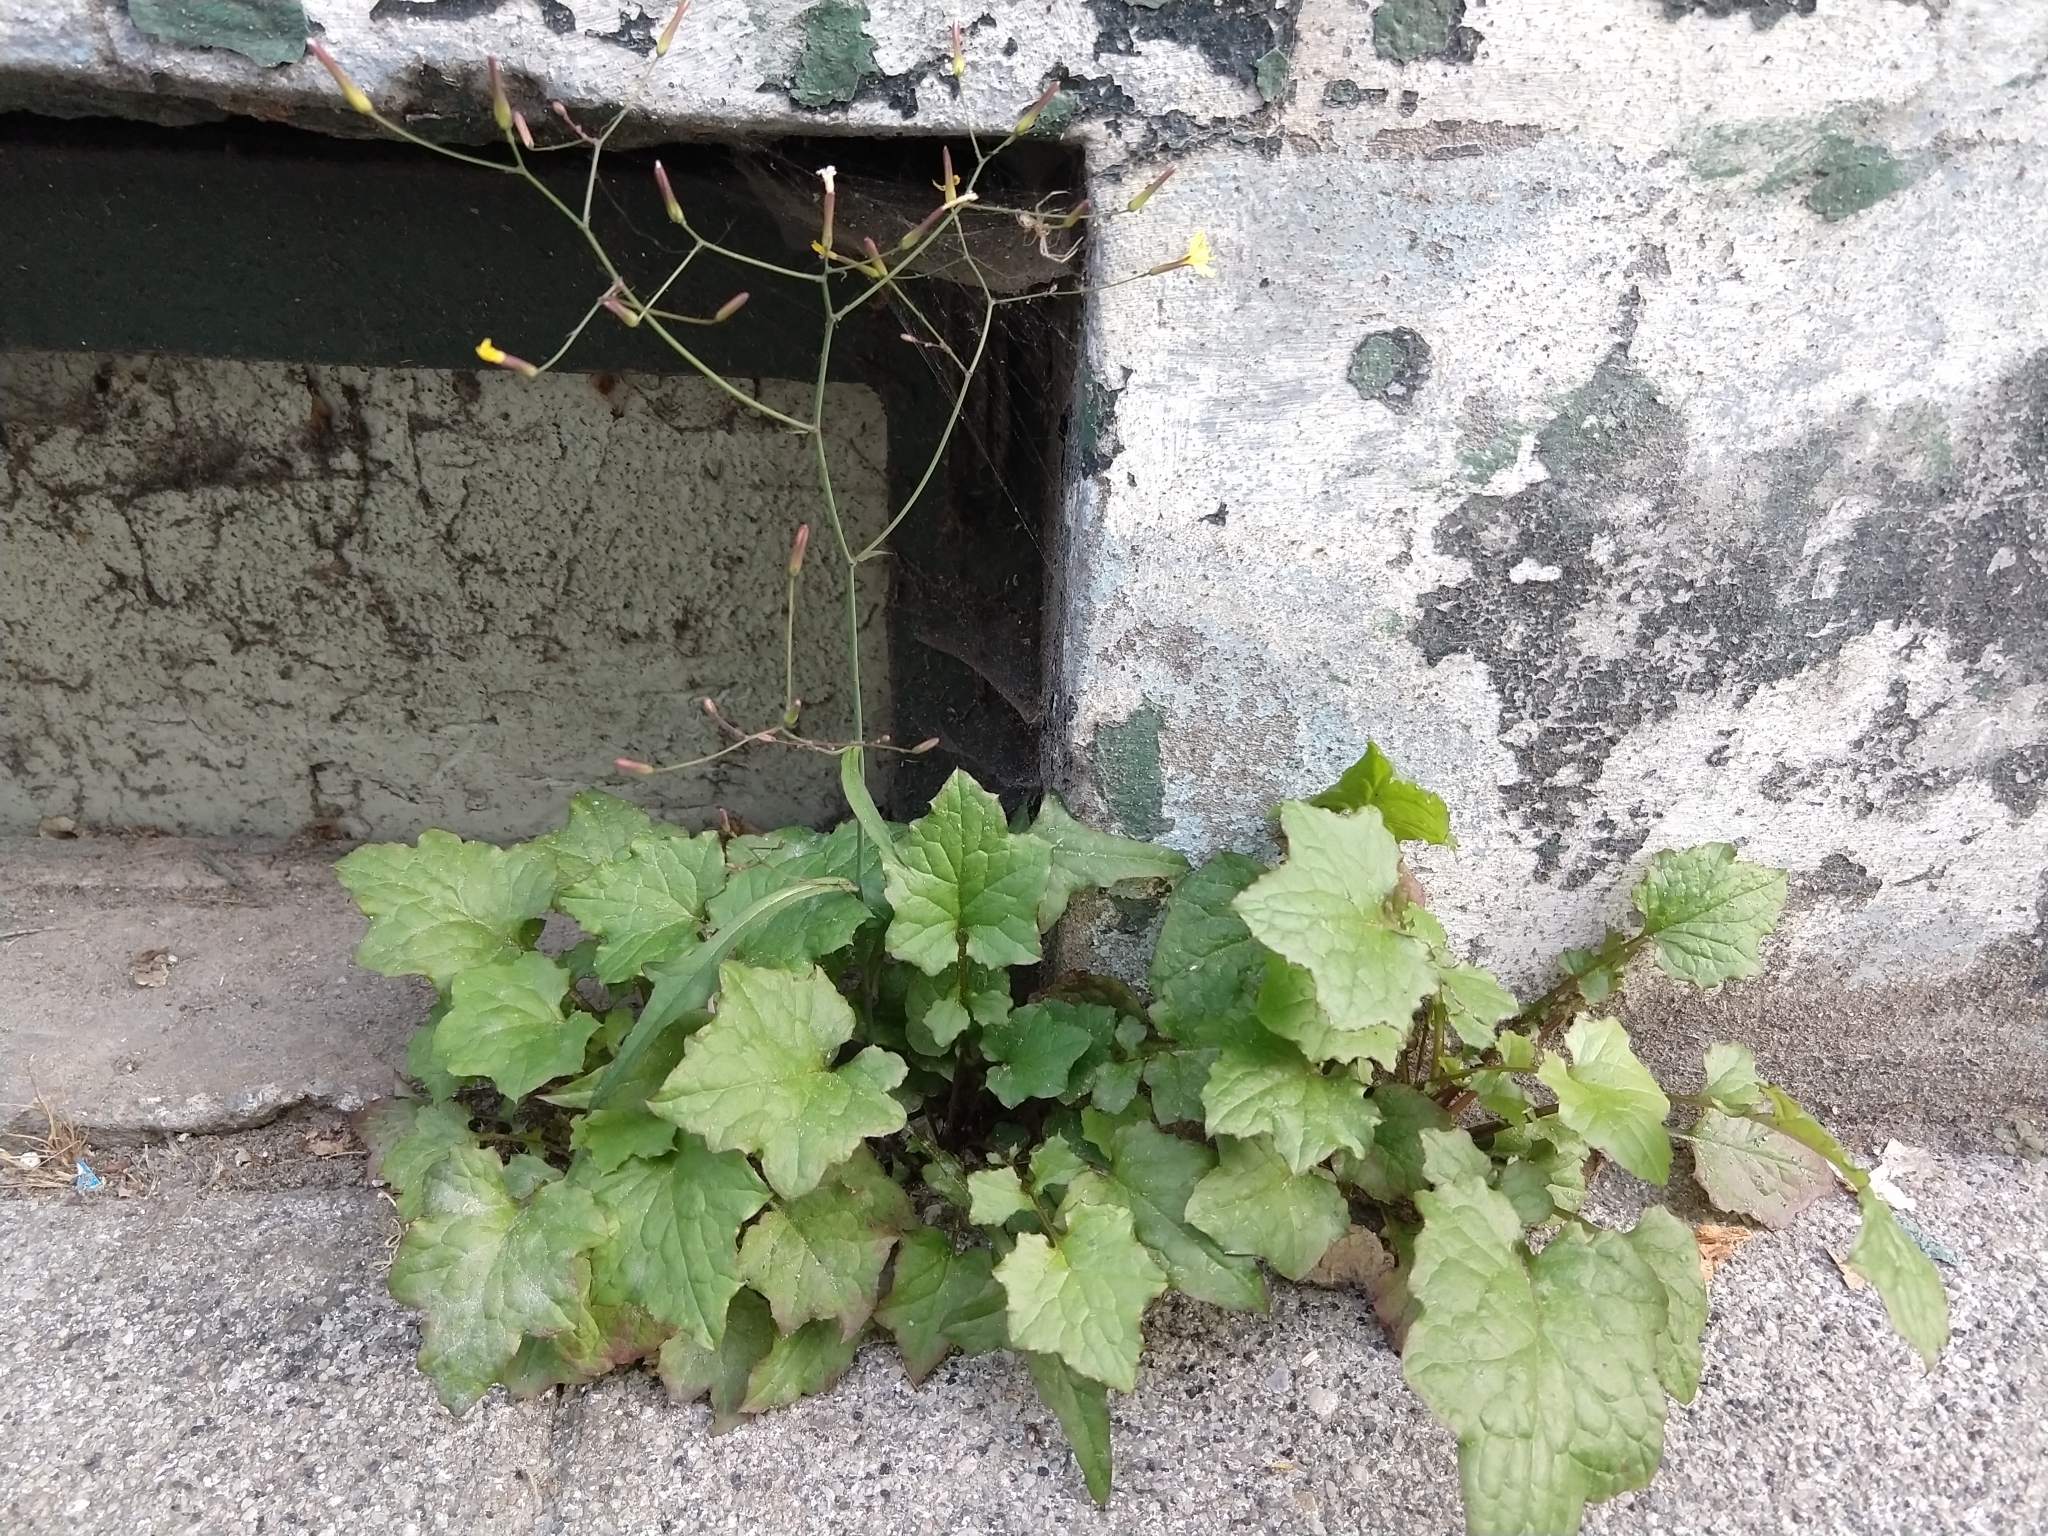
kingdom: Plantae
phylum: Tracheophyta
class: Magnoliopsida
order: Asterales
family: Asteraceae
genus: Mycelis
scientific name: Mycelis muralis
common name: Wall lettuce
